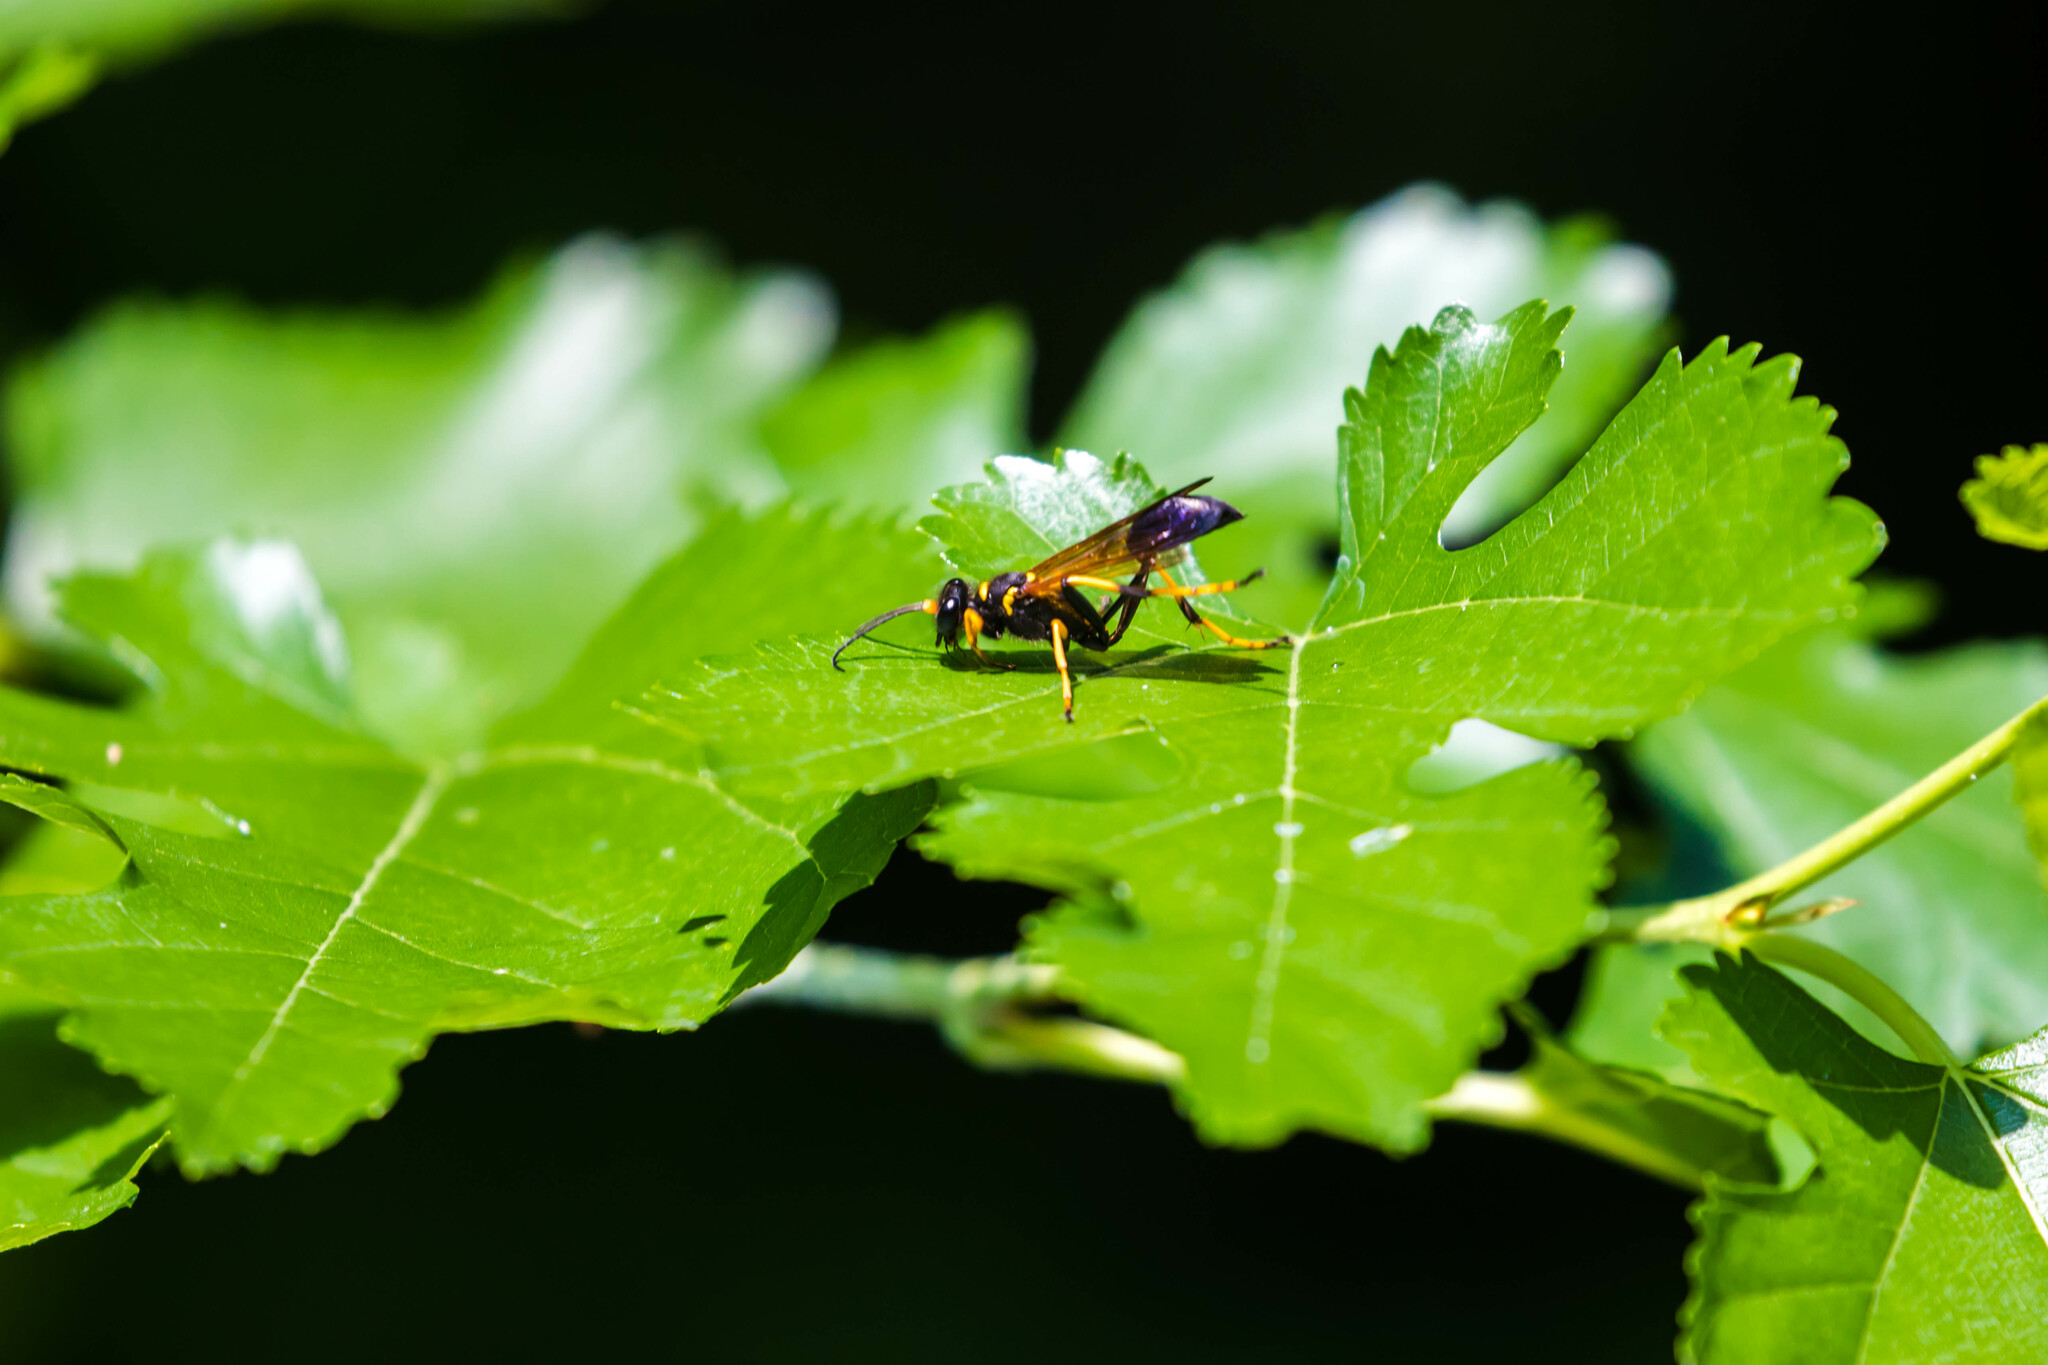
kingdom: Animalia
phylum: Arthropoda
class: Insecta
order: Hymenoptera
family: Sphecidae
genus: Sceliphron
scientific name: Sceliphron caementarium
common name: Mud dauber
